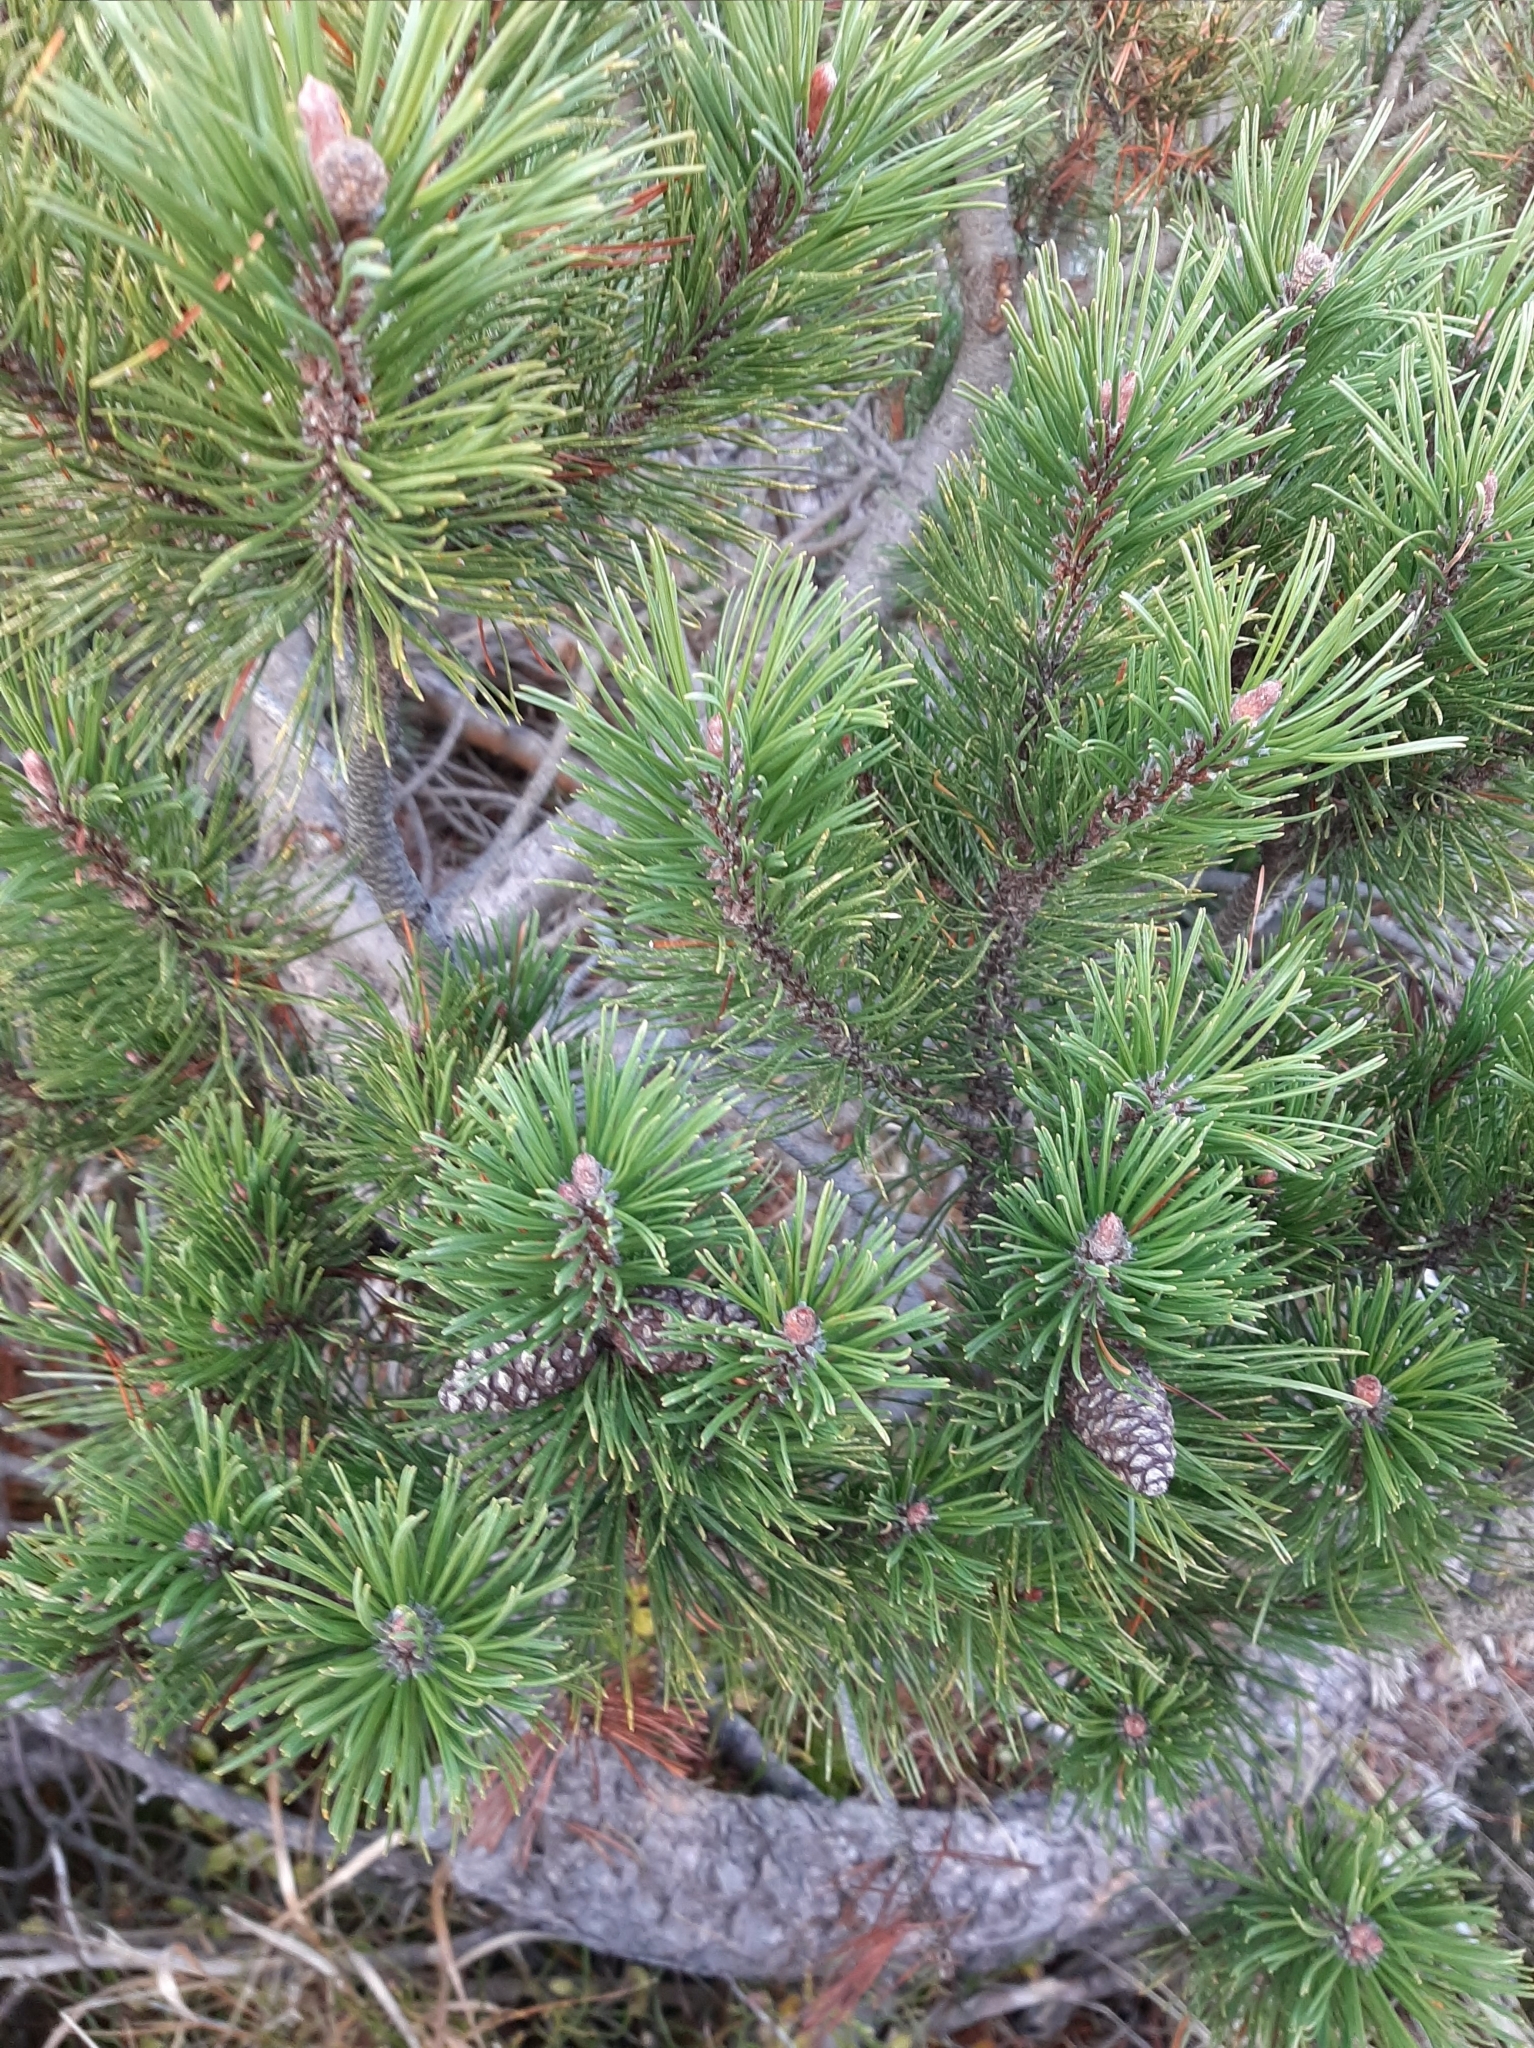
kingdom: Plantae
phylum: Tracheophyta
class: Pinopsida
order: Pinales
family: Pinaceae
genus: Pinus
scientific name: Pinus mugo
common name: Mugo pine
